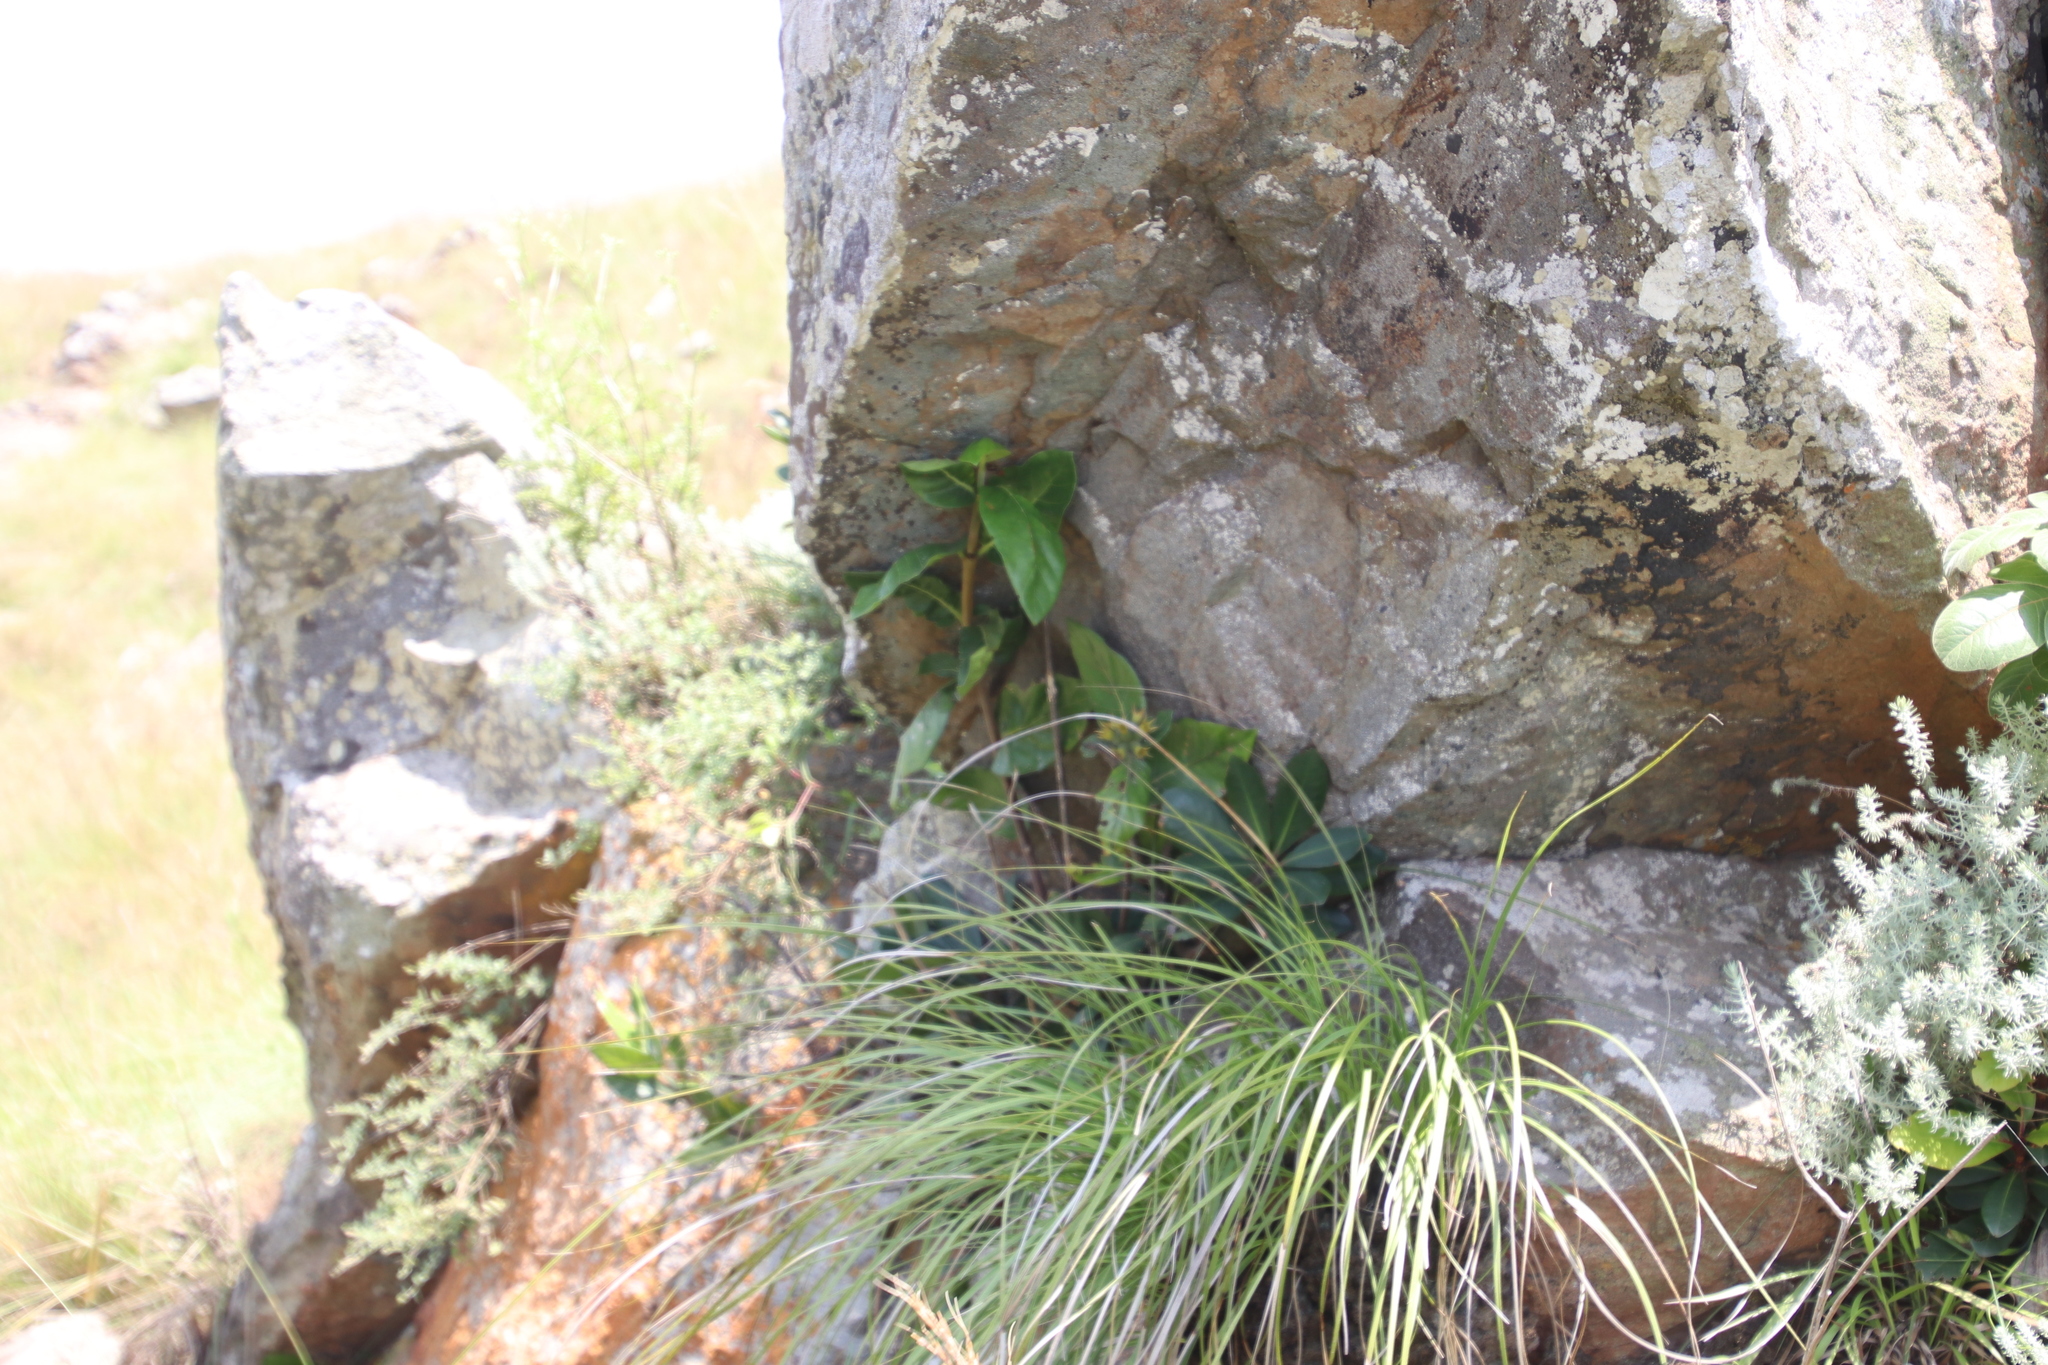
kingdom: Plantae
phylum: Tracheophyta
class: Magnoliopsida
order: Gentianales
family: Rubiaceae
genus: Burchellia
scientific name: Burchellia bubalina
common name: Wild pomegranate
